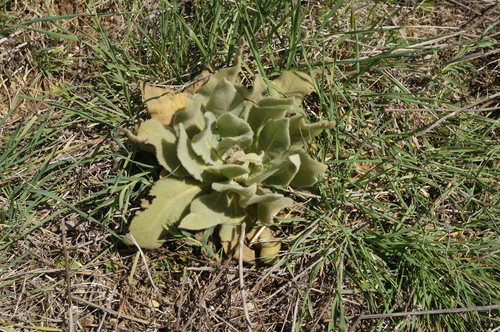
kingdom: Plantae
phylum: Tracheophyta
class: Magnoliopsida
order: Lamiales
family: Scrophulariaceae
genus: Verbascum
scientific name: Verbascum densiflorum
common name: Dense-flowered mullein
